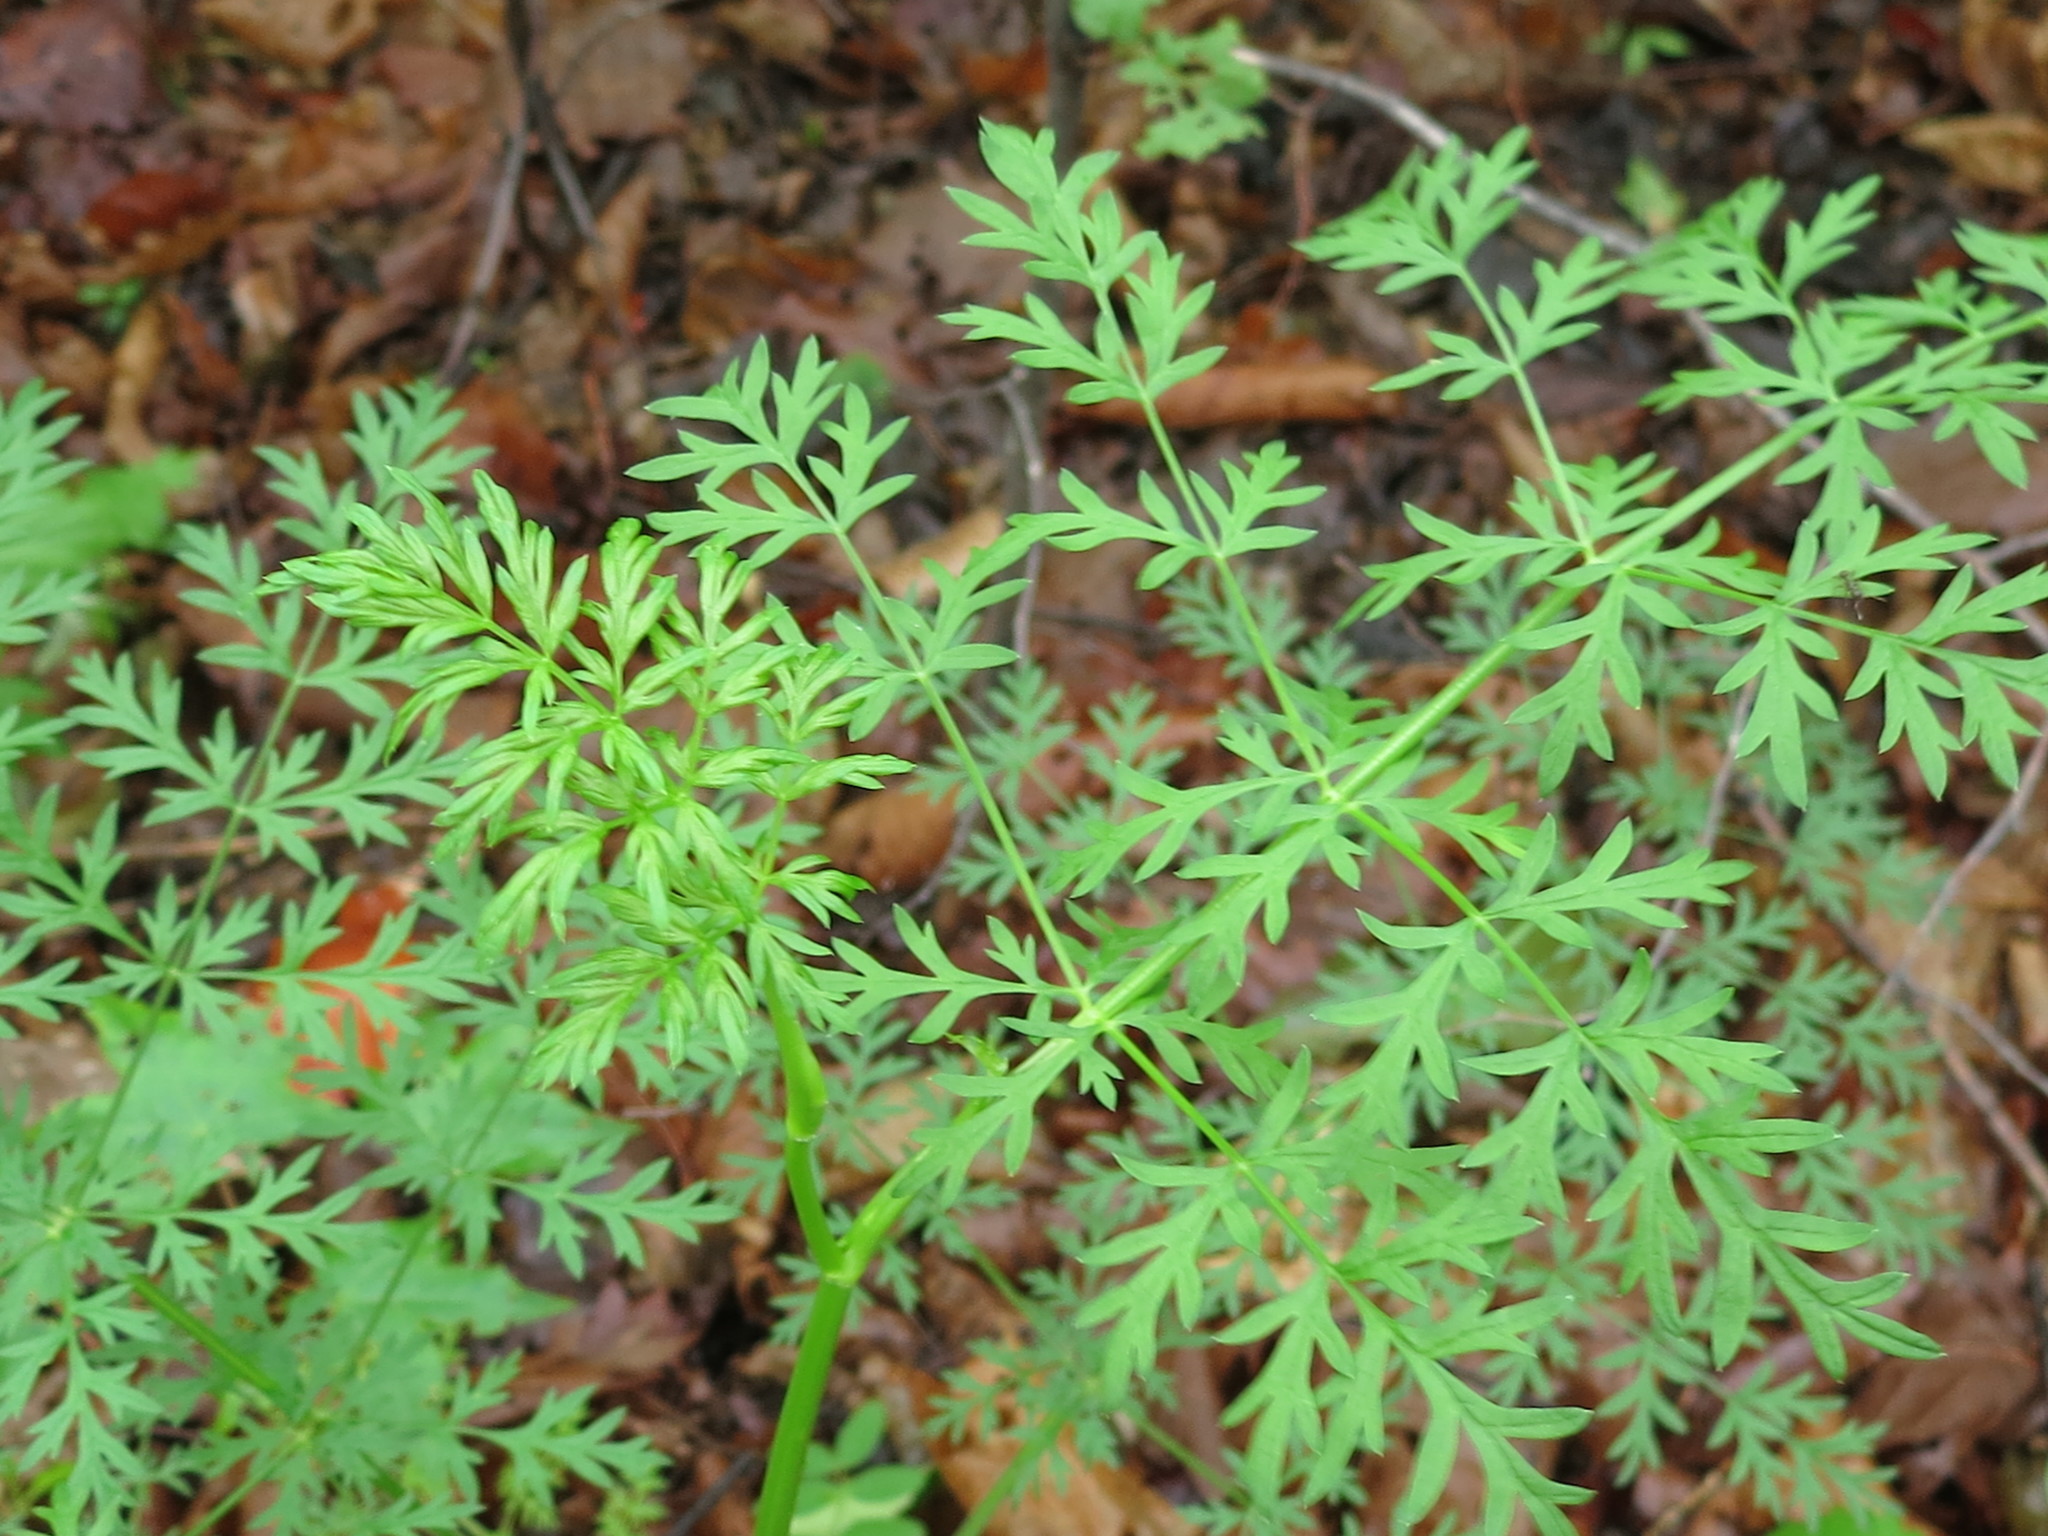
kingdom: Plantae
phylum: Tracheophyta
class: Magnoliopsida
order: Apiales
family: Apiaceae
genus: Seseli
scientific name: Seseli seseloides
